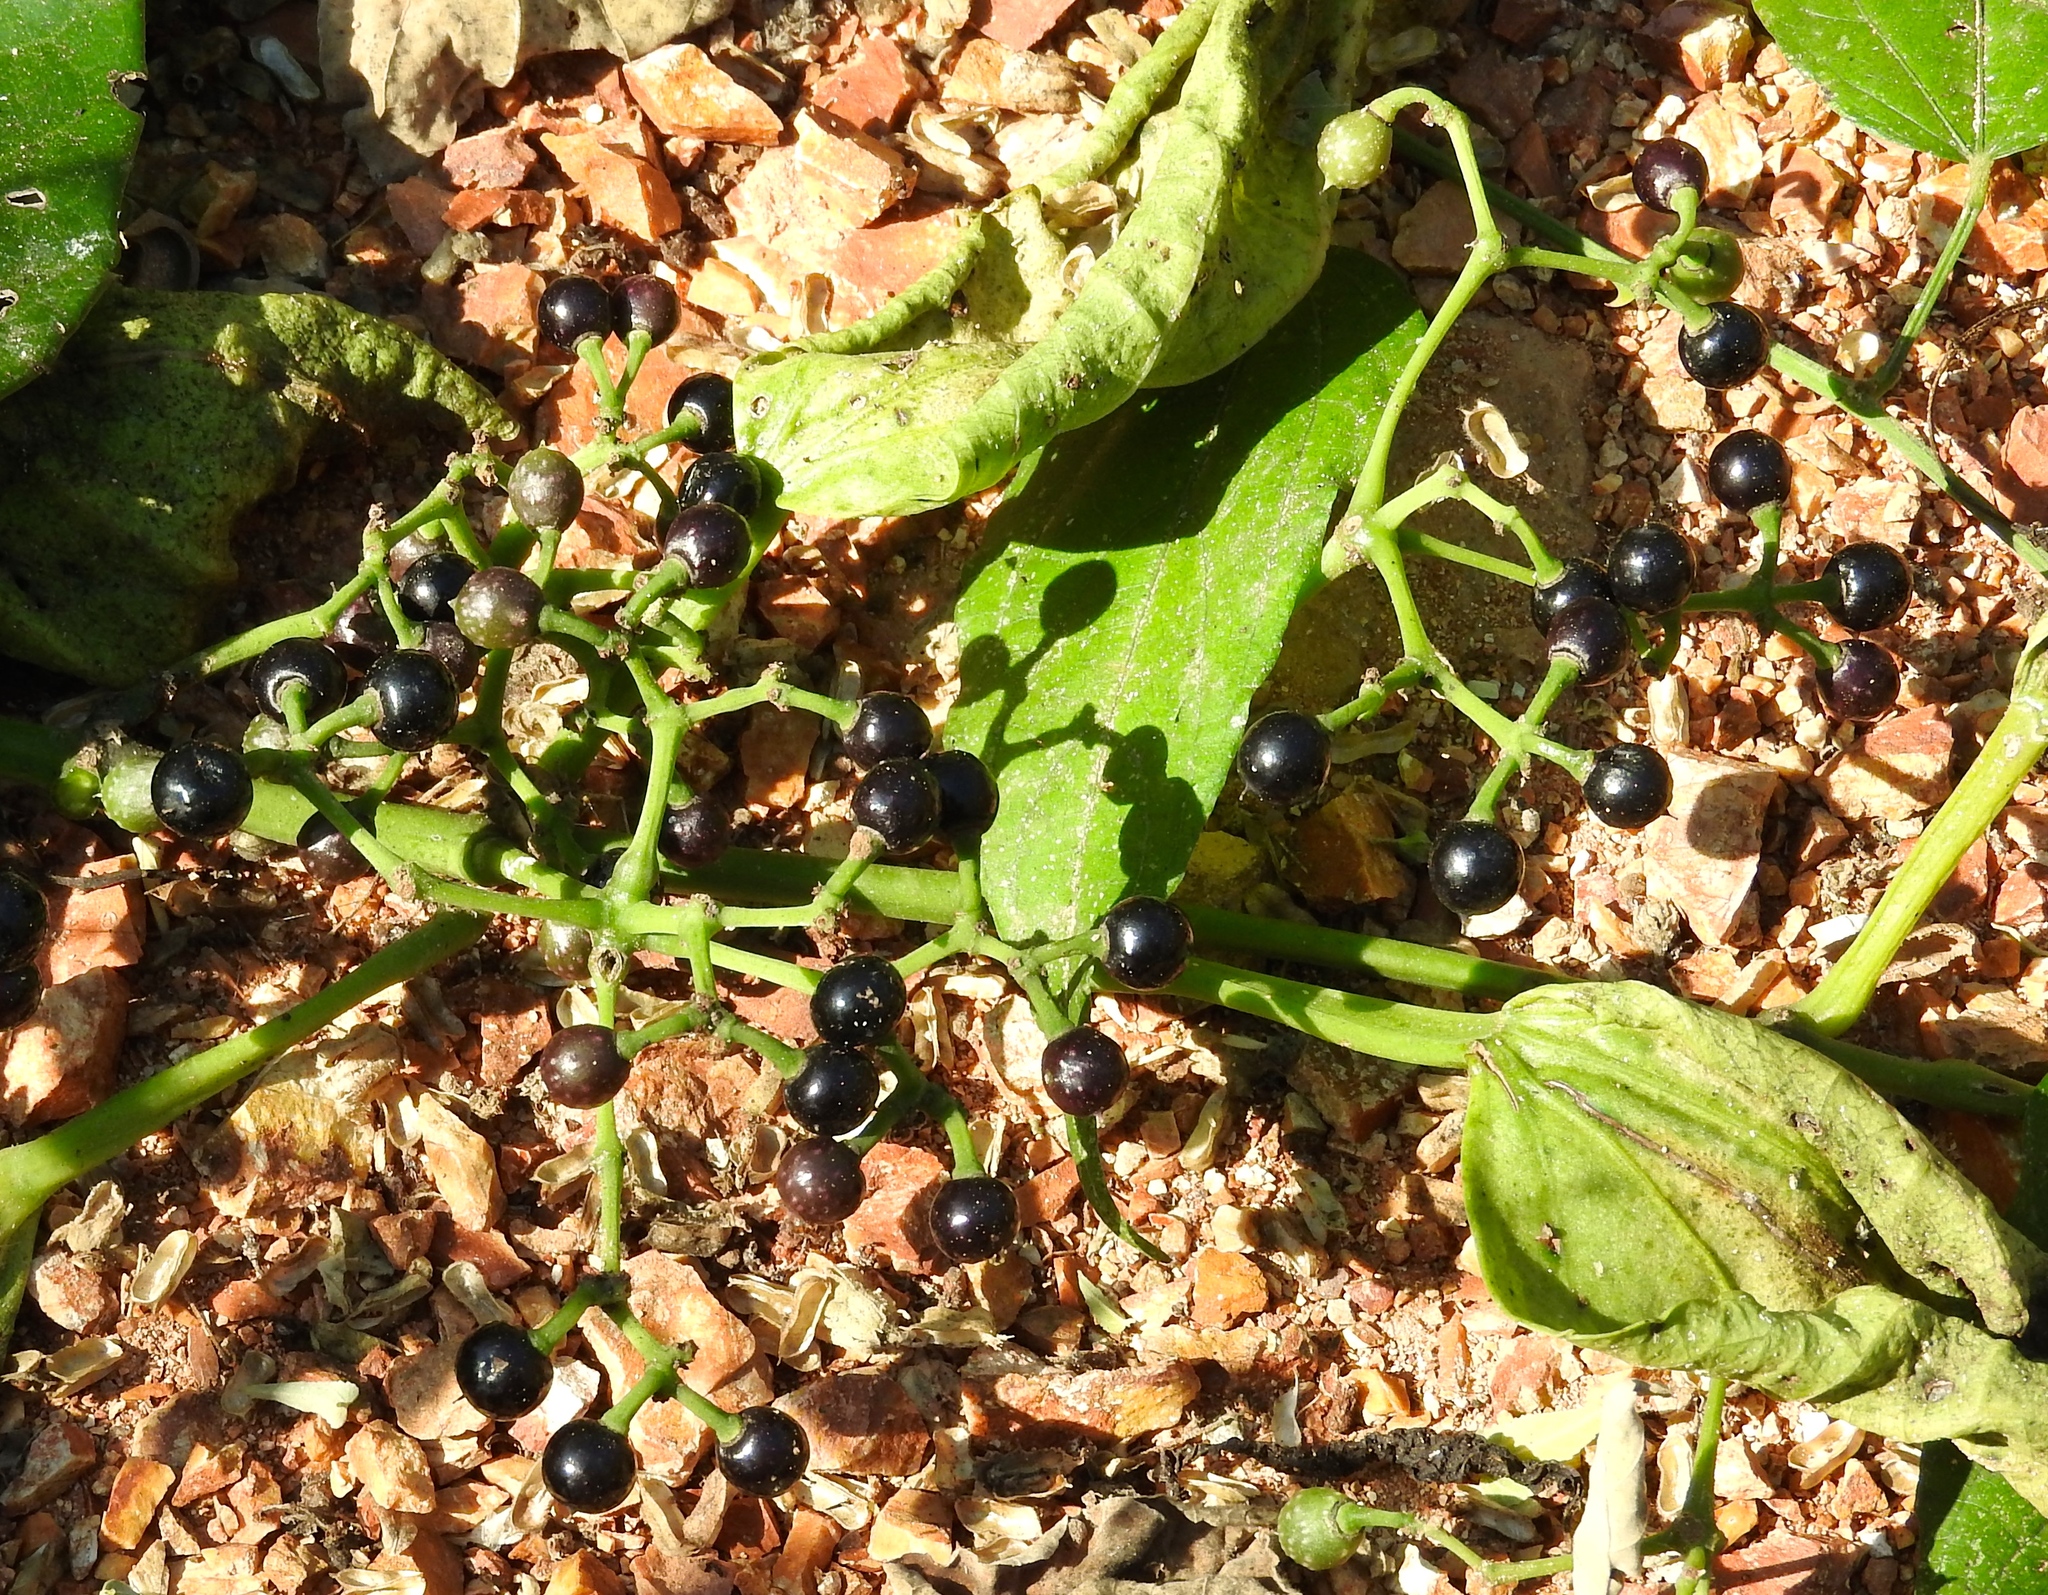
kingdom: Plantae
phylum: Tracheophyta
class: Magnoliopsida
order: Vitales
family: Vitaceae
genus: Cissus
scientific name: Cissus verticillata
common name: Princess vine
